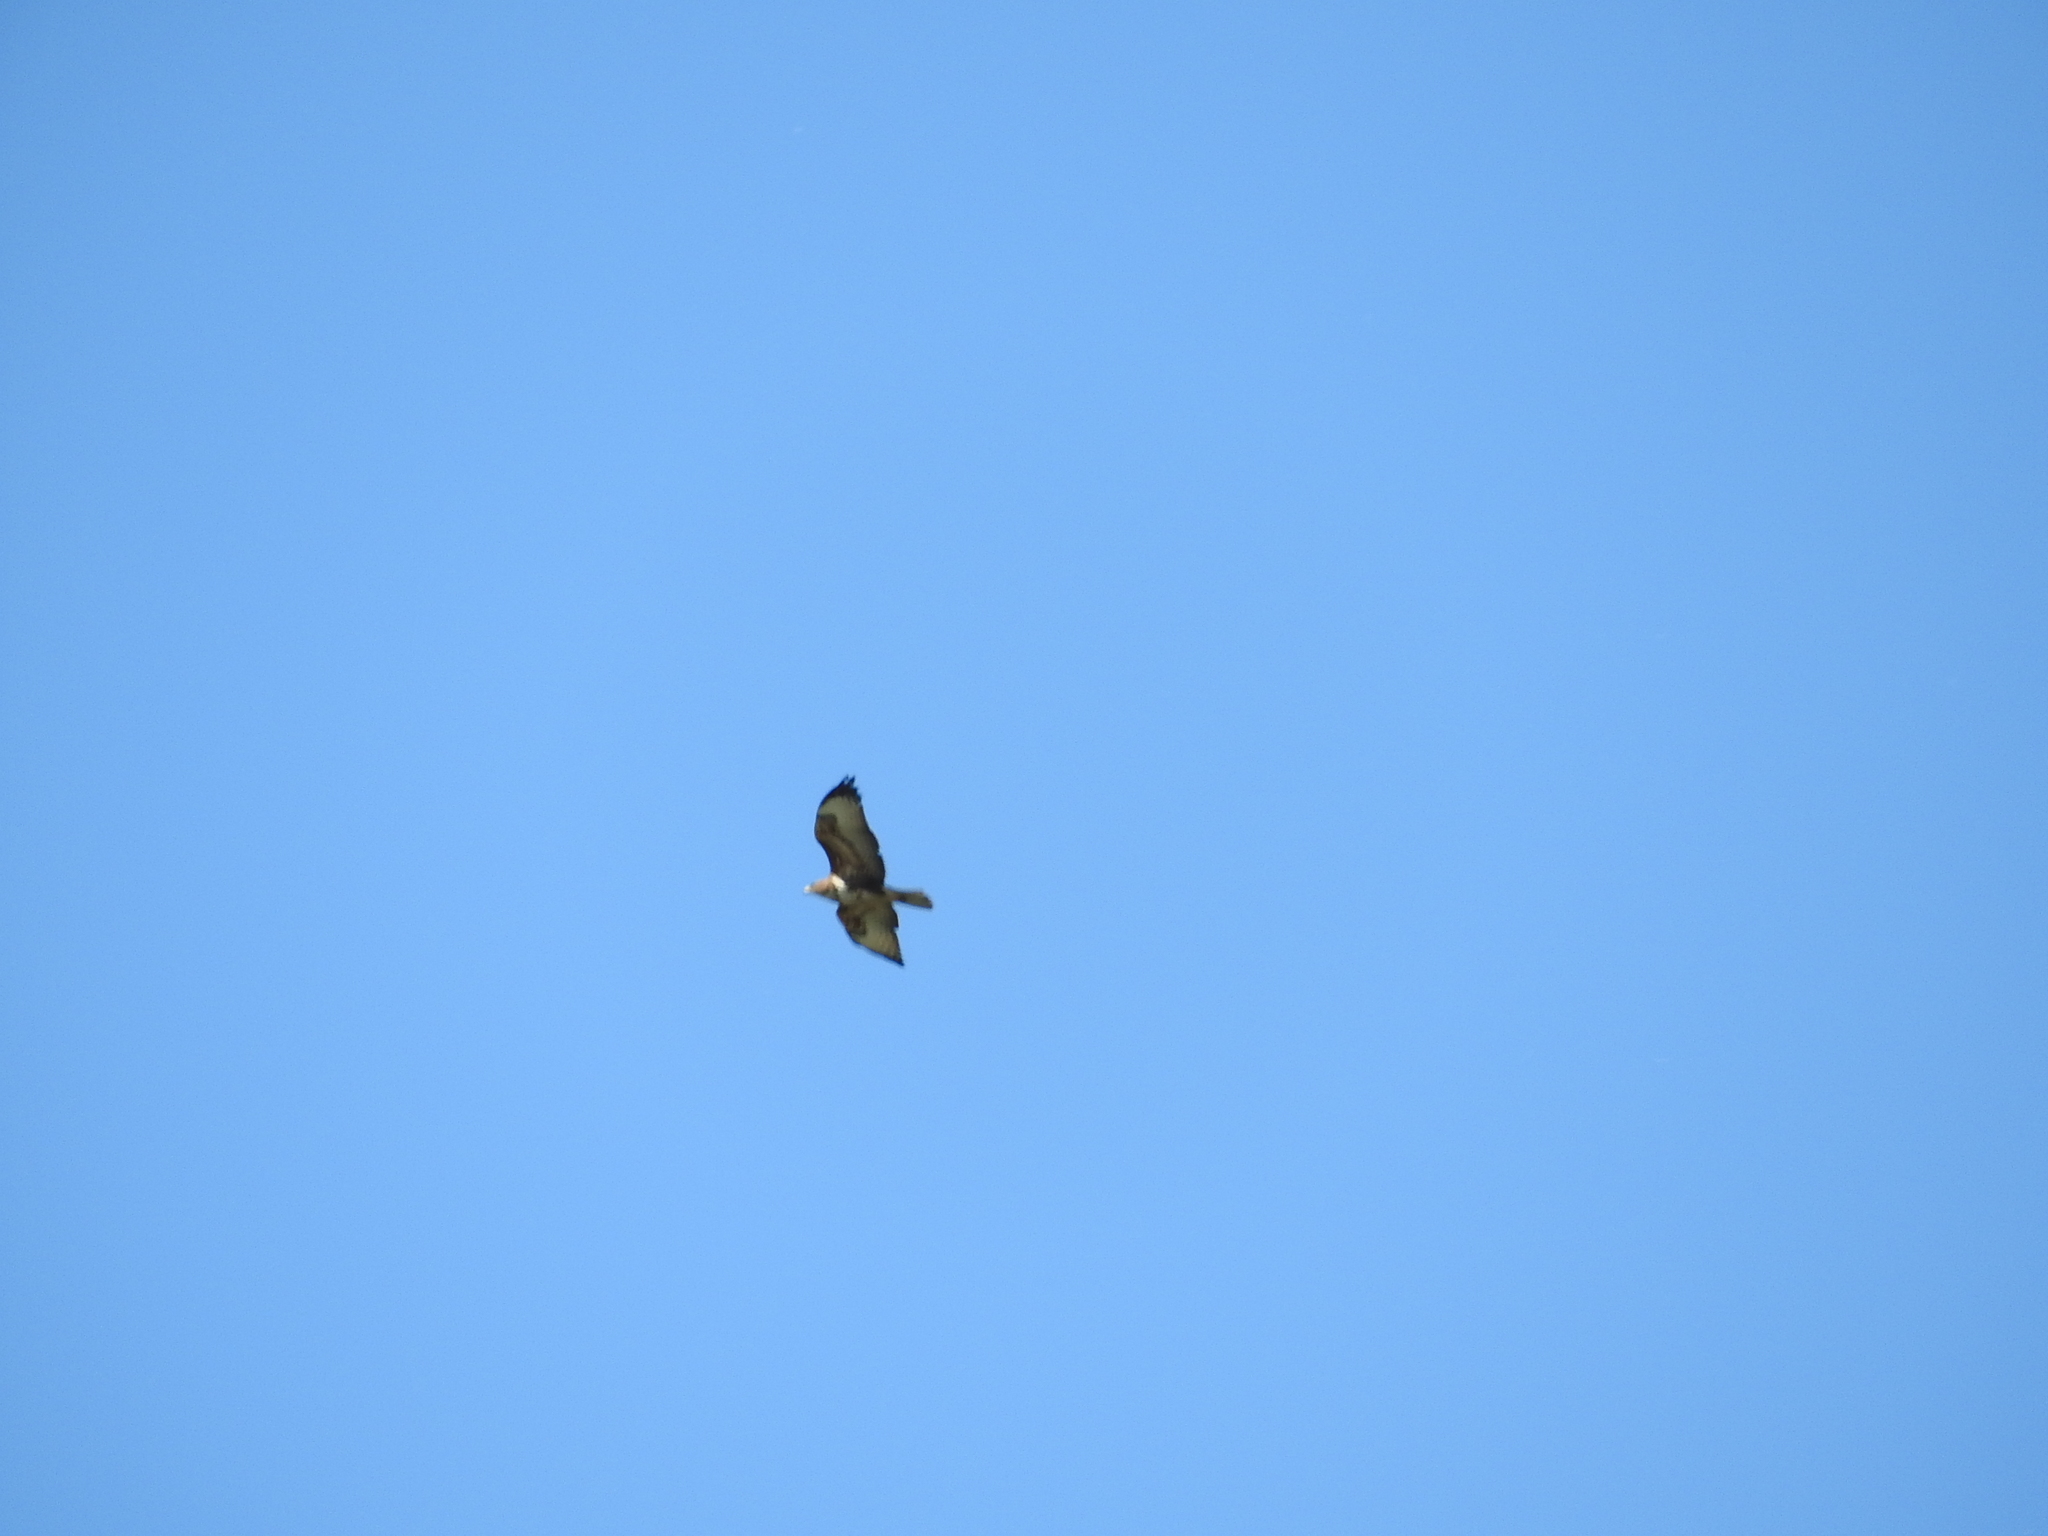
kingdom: Animalia
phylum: Chordata
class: Aves
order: Accipitriformes
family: Accipitridae
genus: Buteo
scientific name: Buteo buteo
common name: Common buzzard
